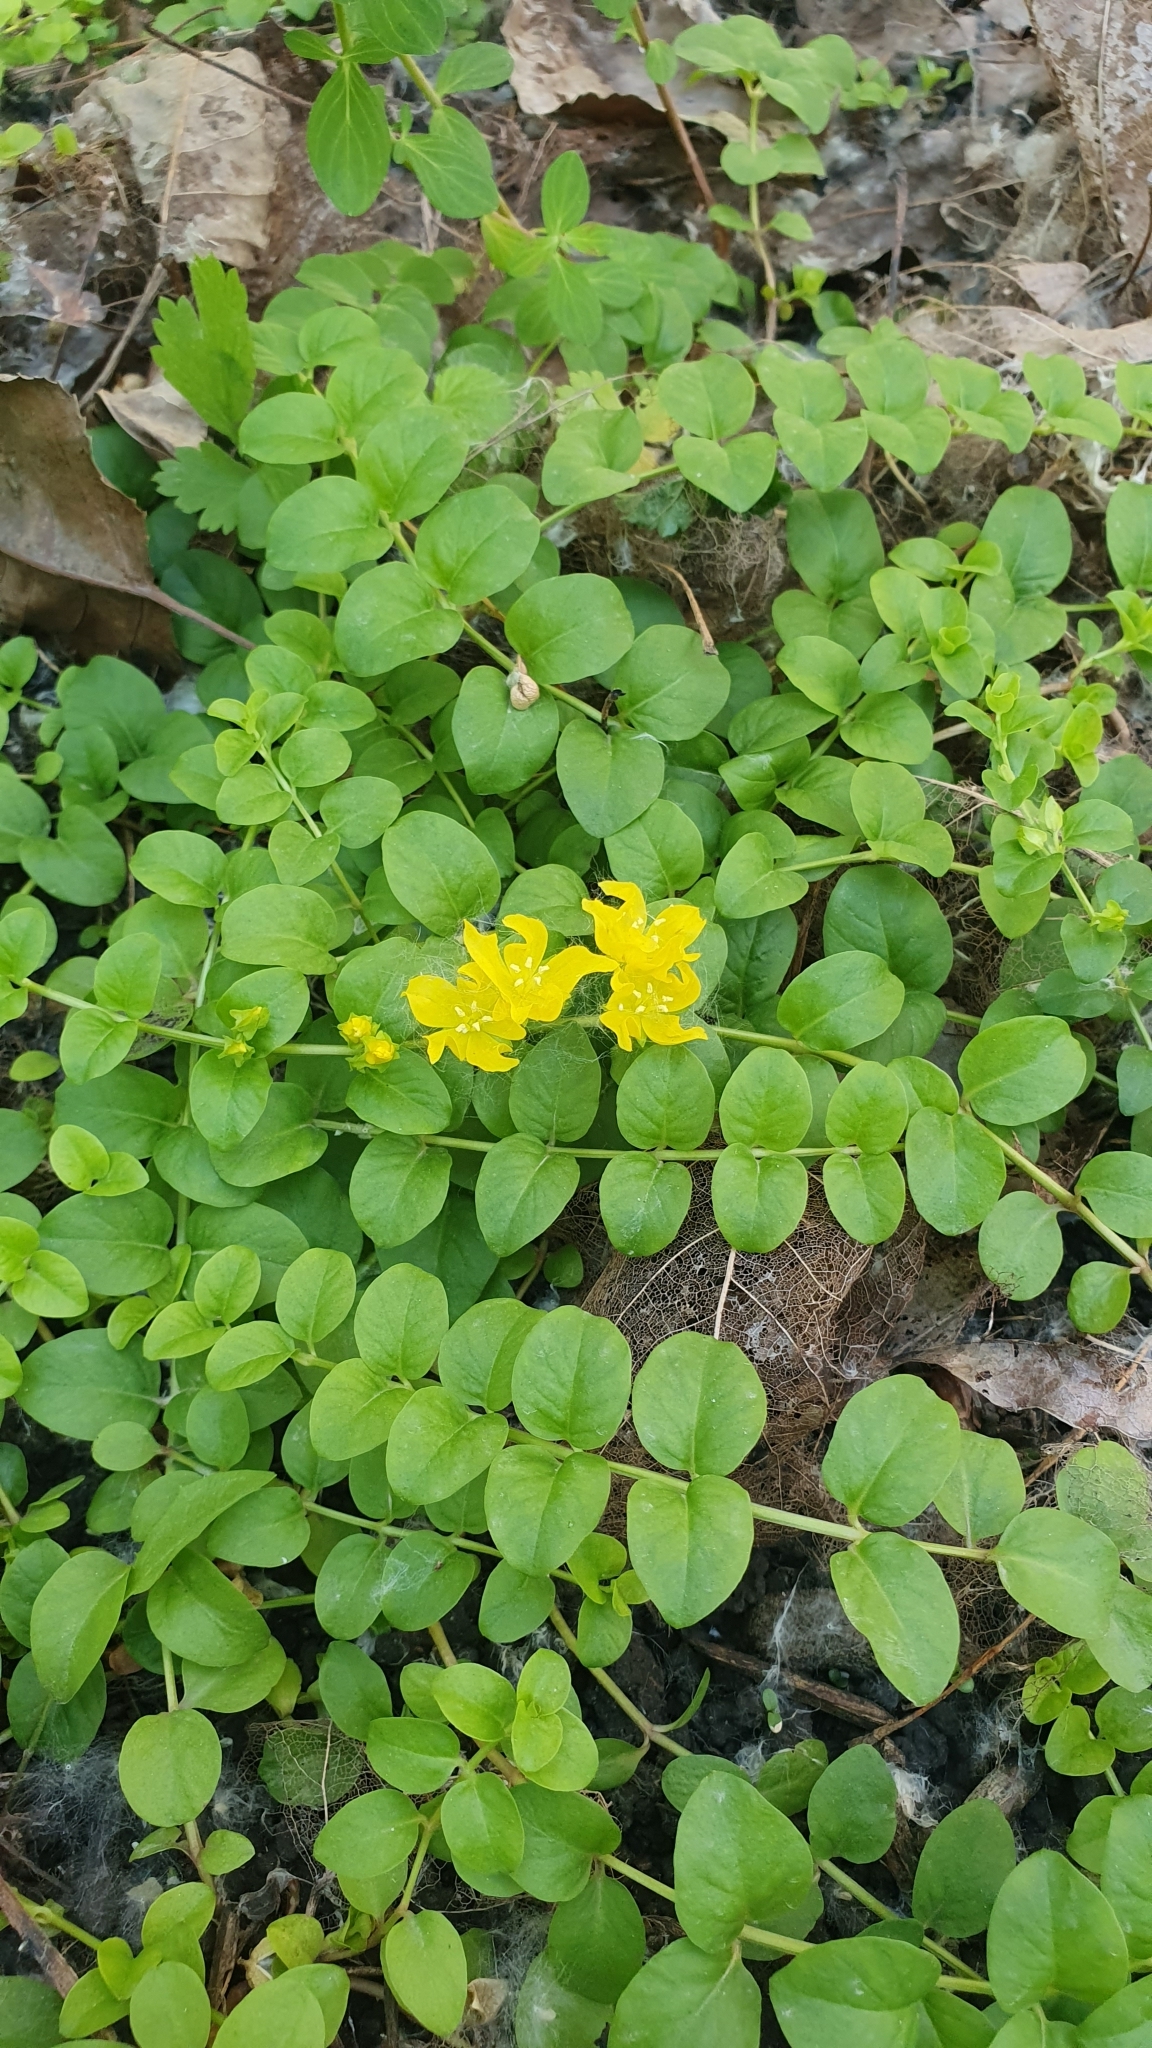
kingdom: Plantae
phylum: Tracheophyta
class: Magnoliopsida
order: Ericales
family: Primulaceae
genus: Lysimachia
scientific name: Lysimachia nummularia
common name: Moneywort
